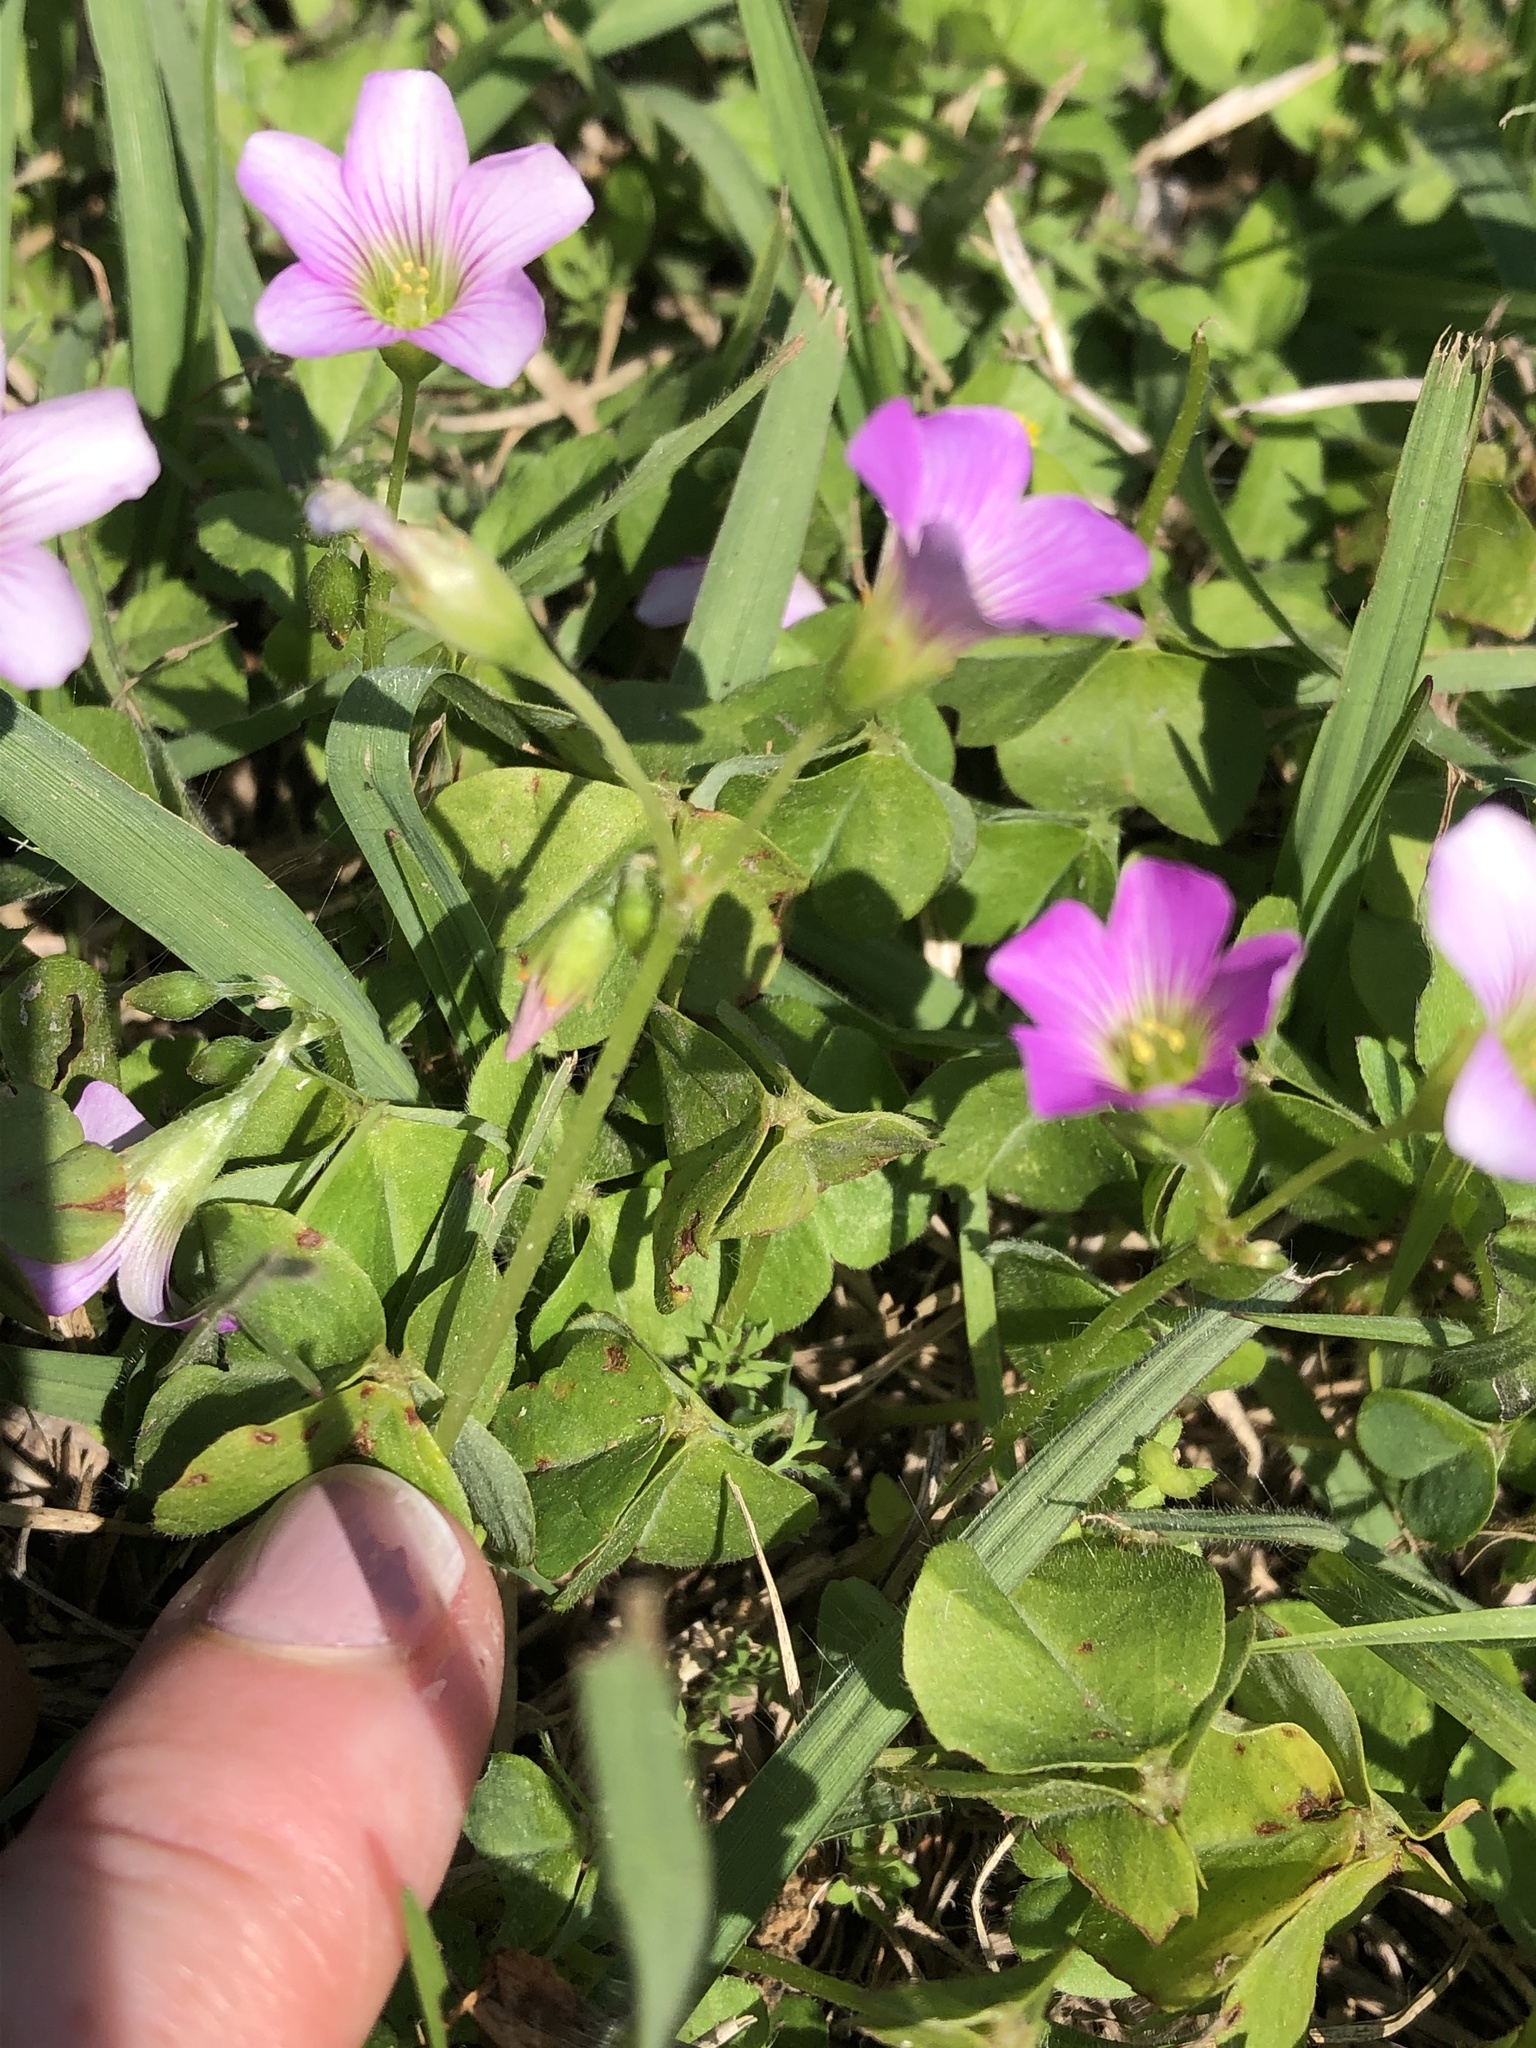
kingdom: Plantae
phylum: Tracheophyta
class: Magnoliopsida
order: Oxalidales
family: Oxalidaceae
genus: Oxalis
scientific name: Oxalis debilis
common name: Large-flowered pink-sorrel
